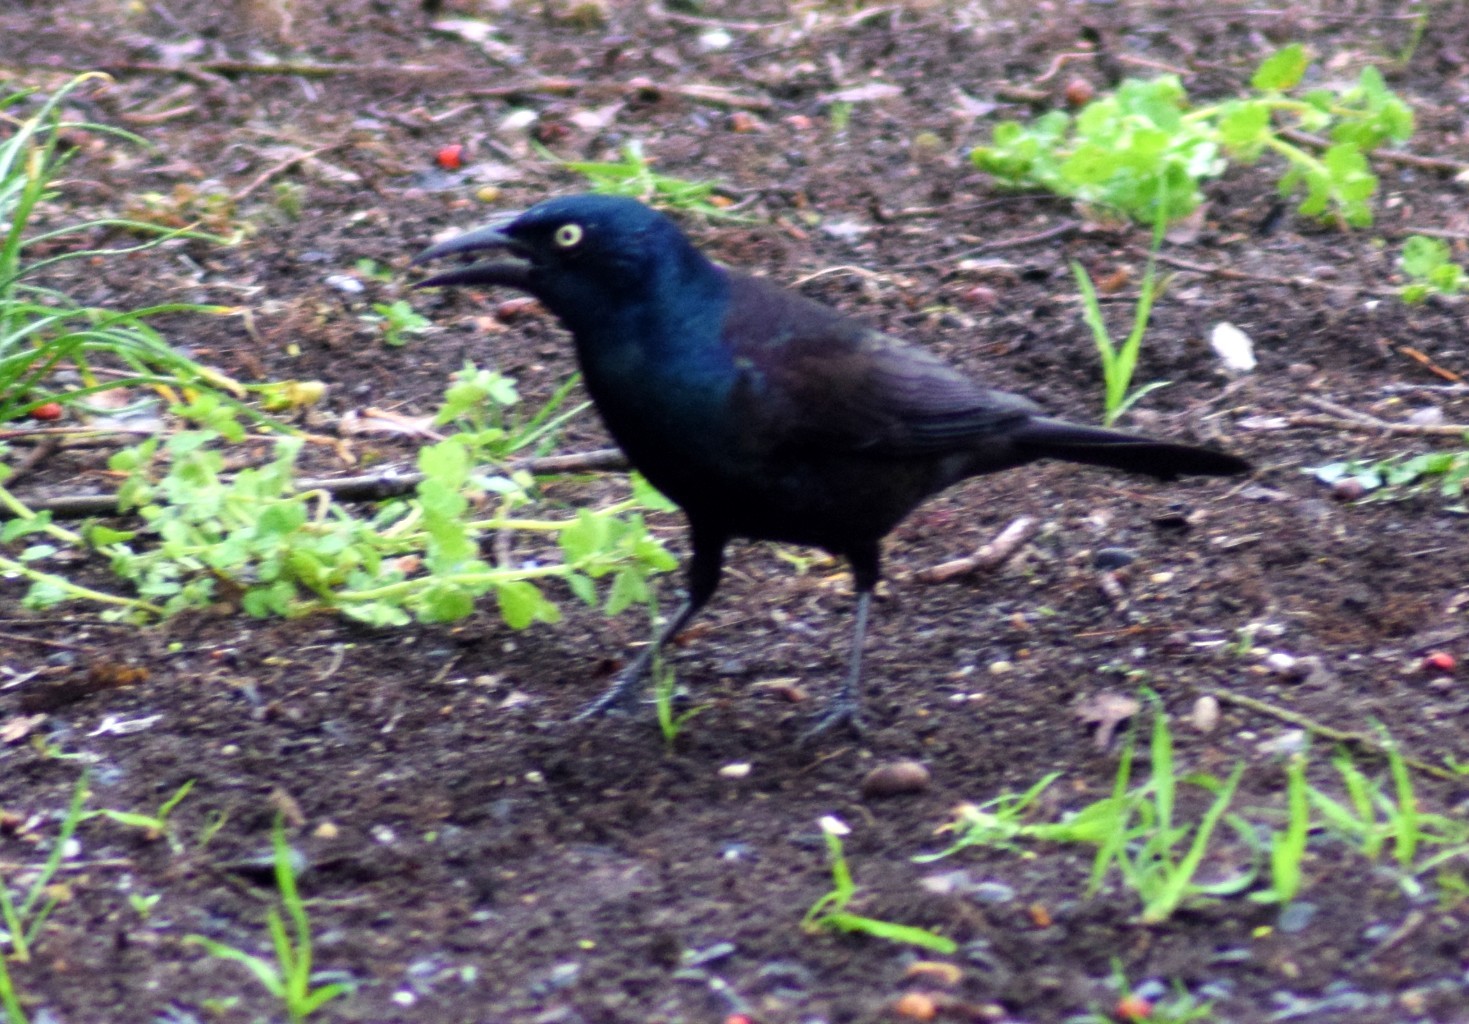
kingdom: Animalia
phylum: Chordata
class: Aves
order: Passeriformes
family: Icteridae
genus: Quiscalus
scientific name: Quiscalus quiscula
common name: Common grackle
